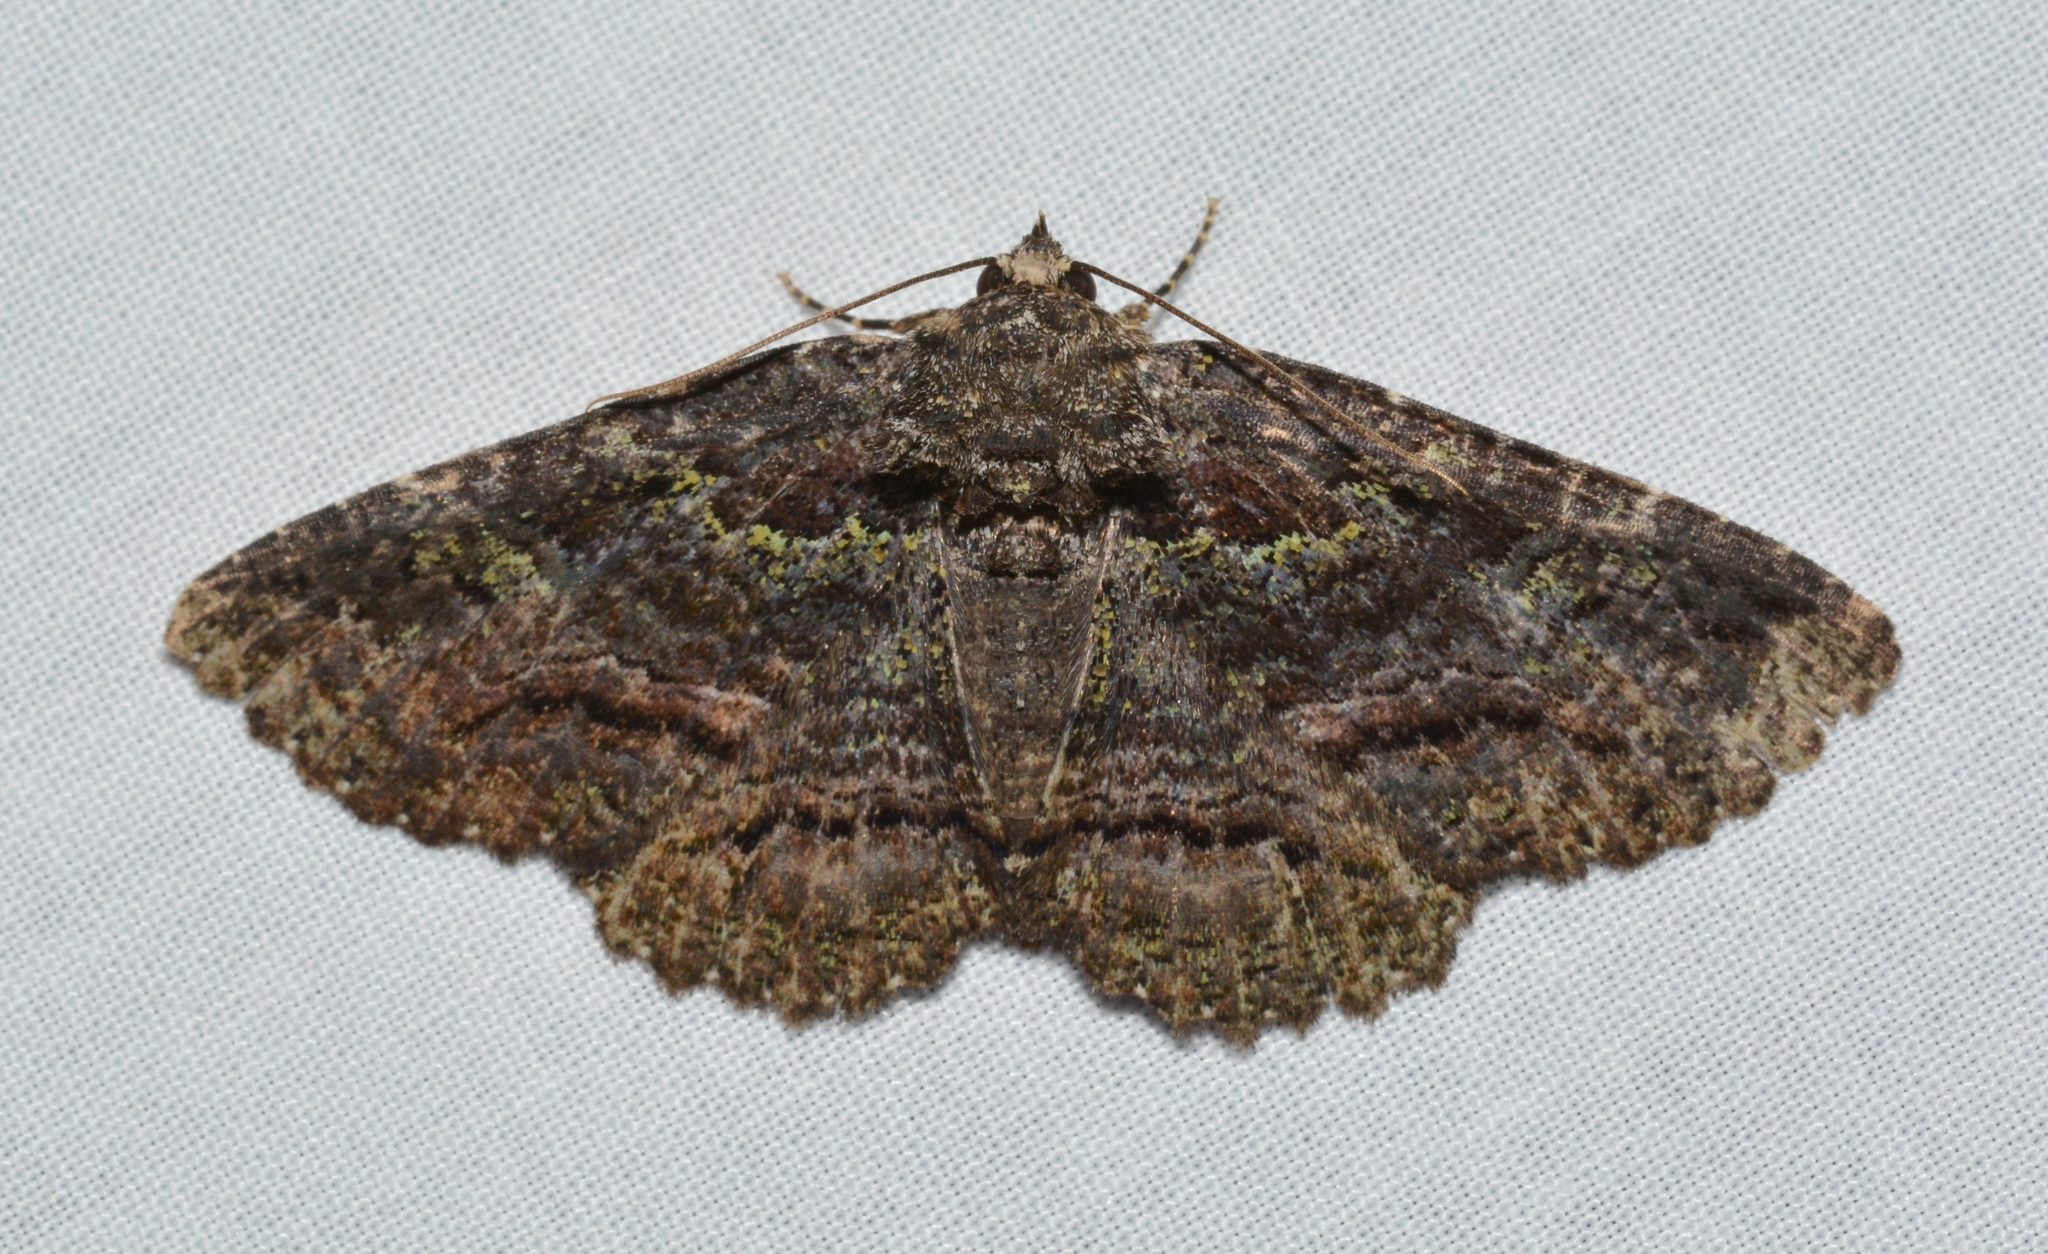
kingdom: Animalia
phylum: Arthropoda
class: Insecta
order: Lepidoptera
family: Erebidae
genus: Zale
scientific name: Zale aeruginosa
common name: Green-dusted zale moth
